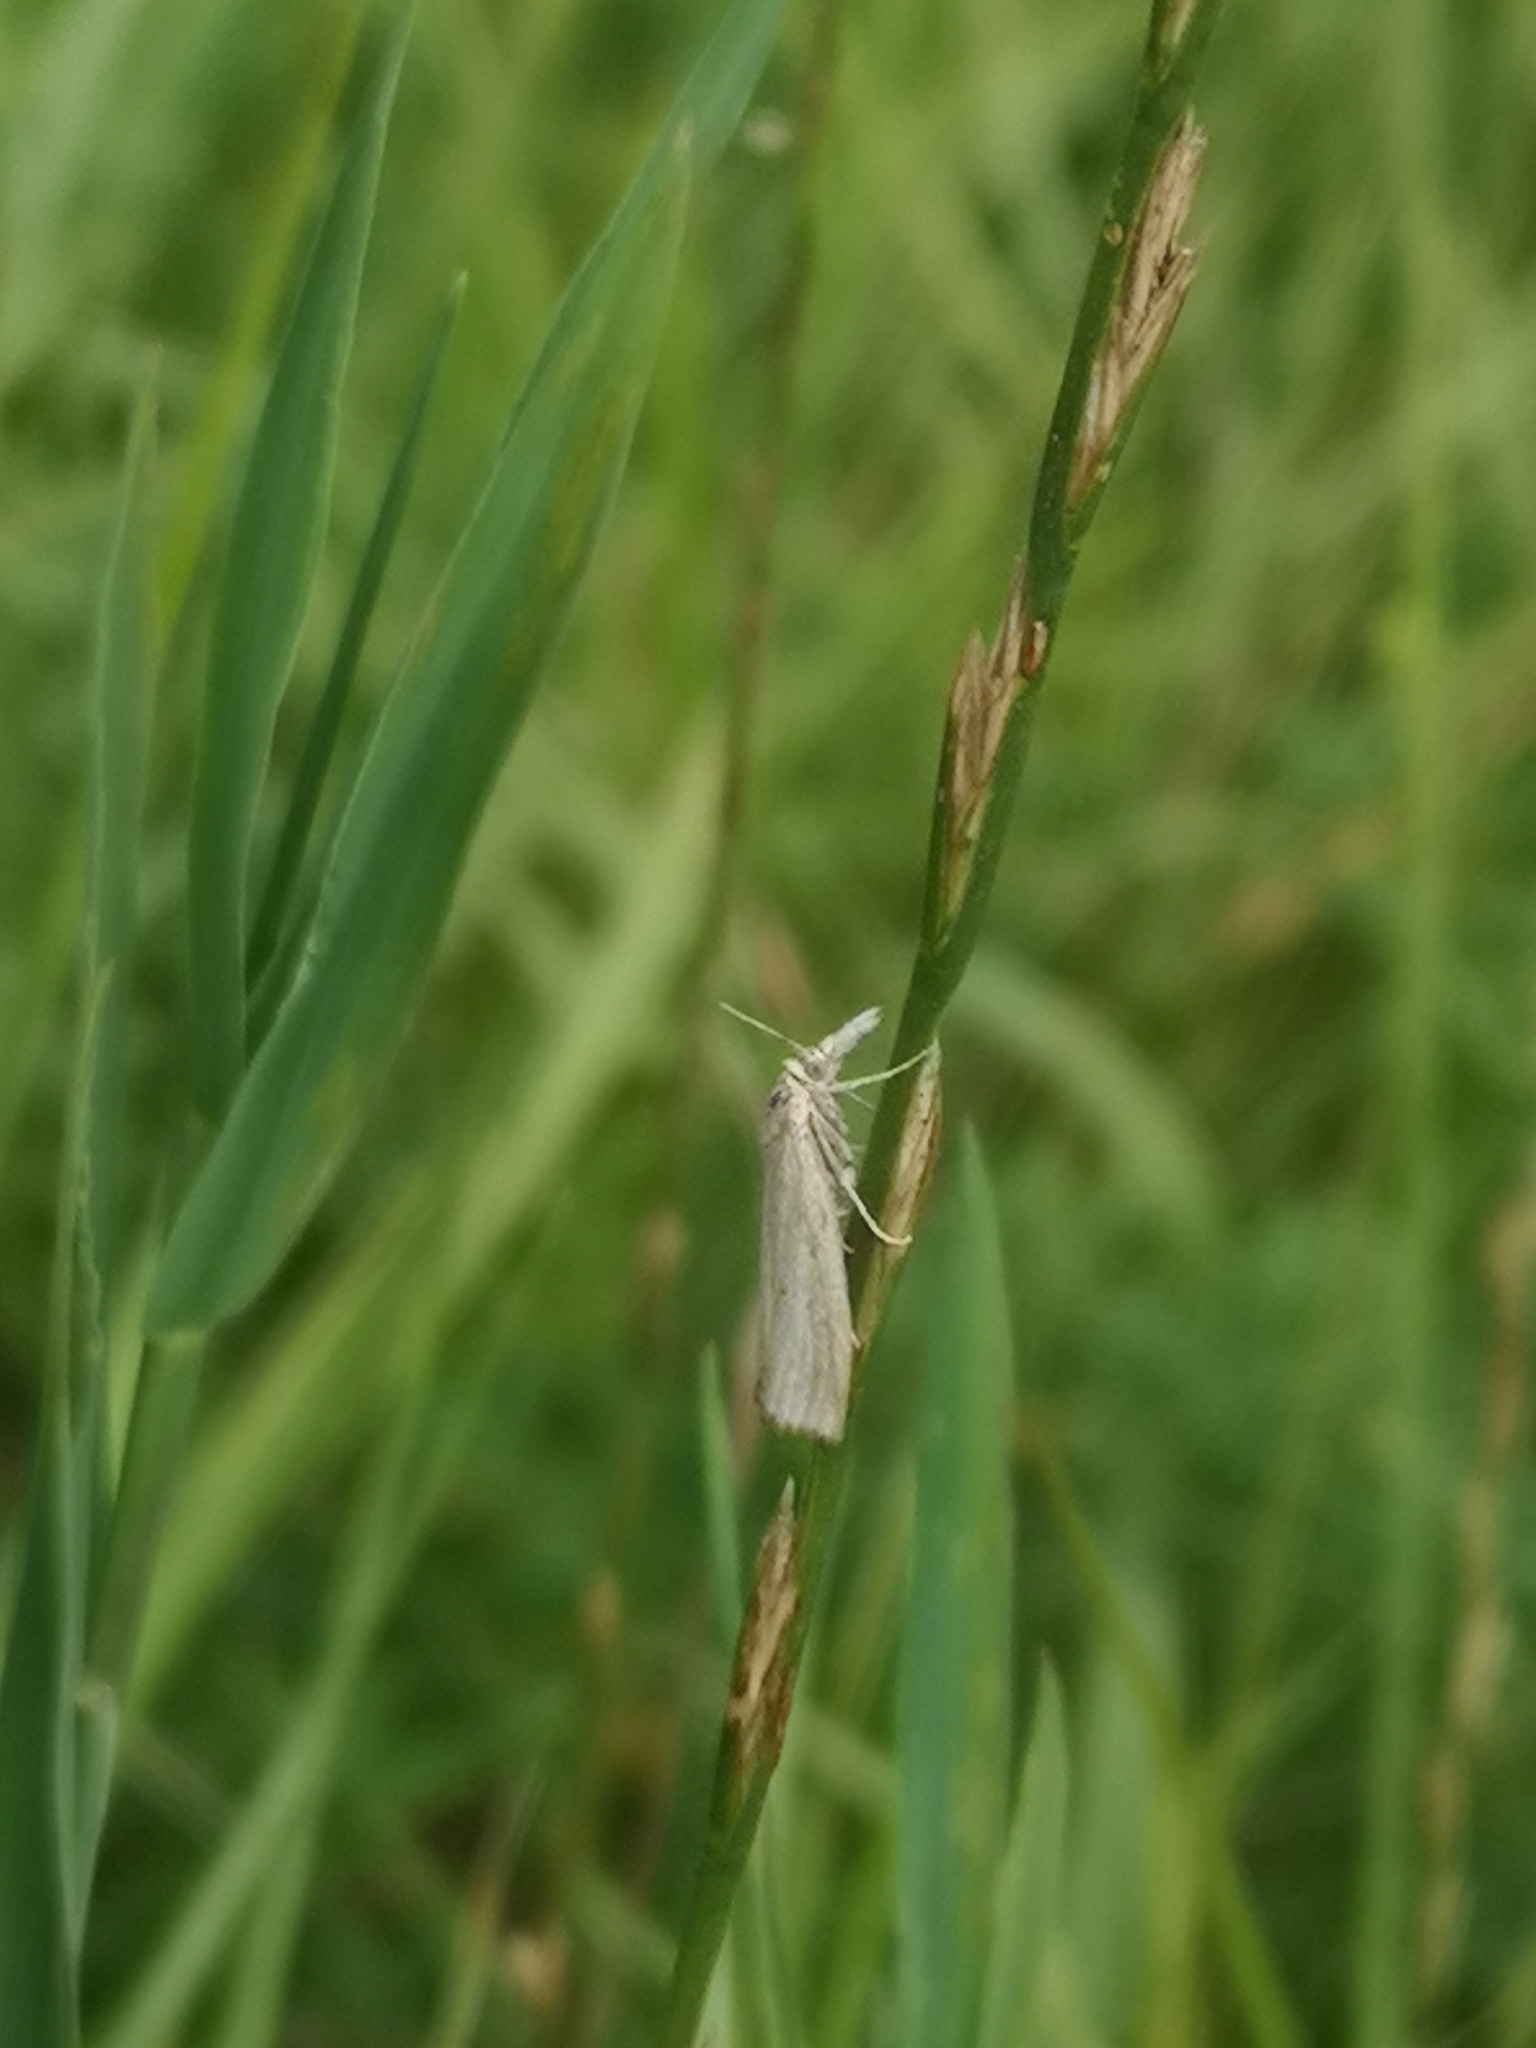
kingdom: Animalia
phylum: Arthropoda
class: Insecta
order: Lepidoptera
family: Crambidae
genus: Crambus
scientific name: Crambus perlellus
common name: Yellow satin veneer
